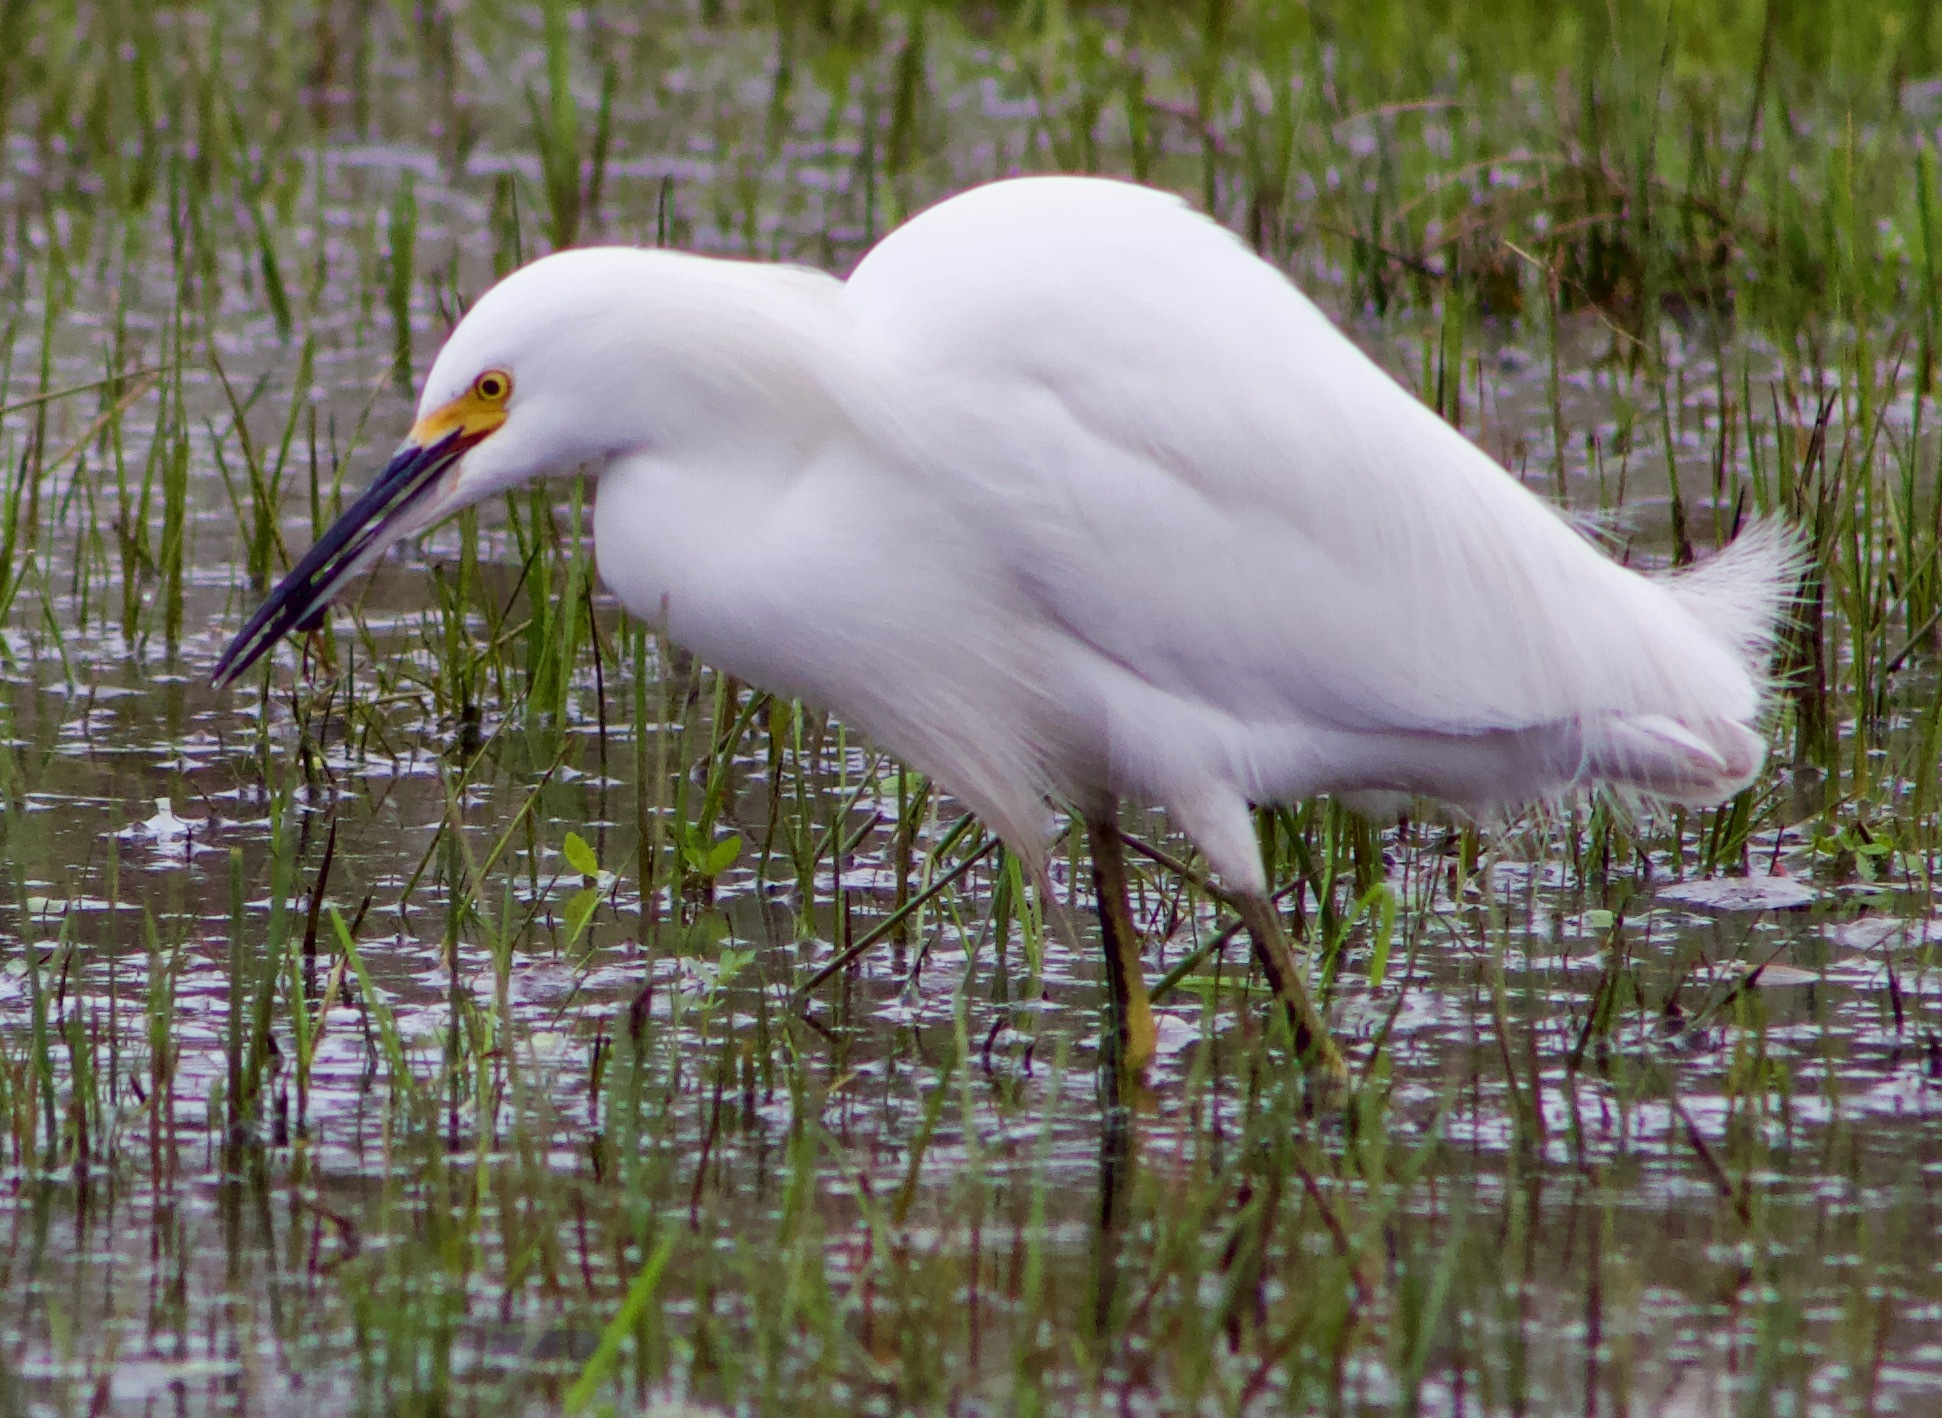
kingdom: Animalia
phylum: Chordata
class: Aves
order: Pelecaniformes
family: Ardeidae
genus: Egretta
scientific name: Egretta thula
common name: Snowy egret
